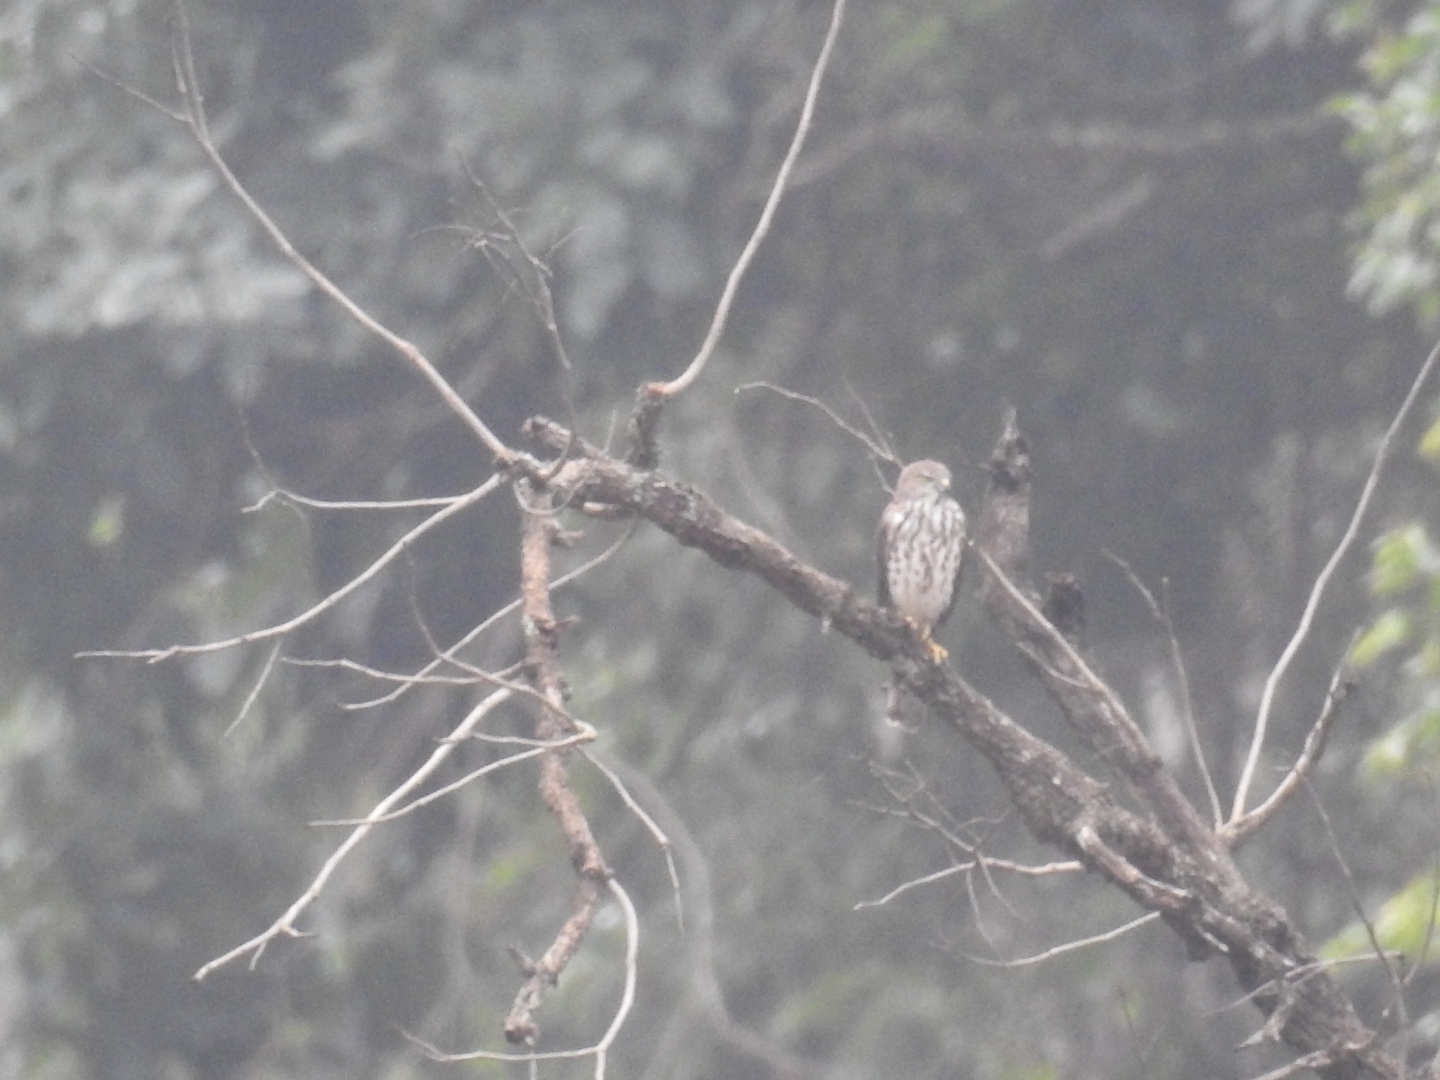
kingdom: Animalia
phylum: Chordata
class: Aves
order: Accipitriformes
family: Accipitridae
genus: Accipiter
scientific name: Accipiter badius
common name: Shikra
